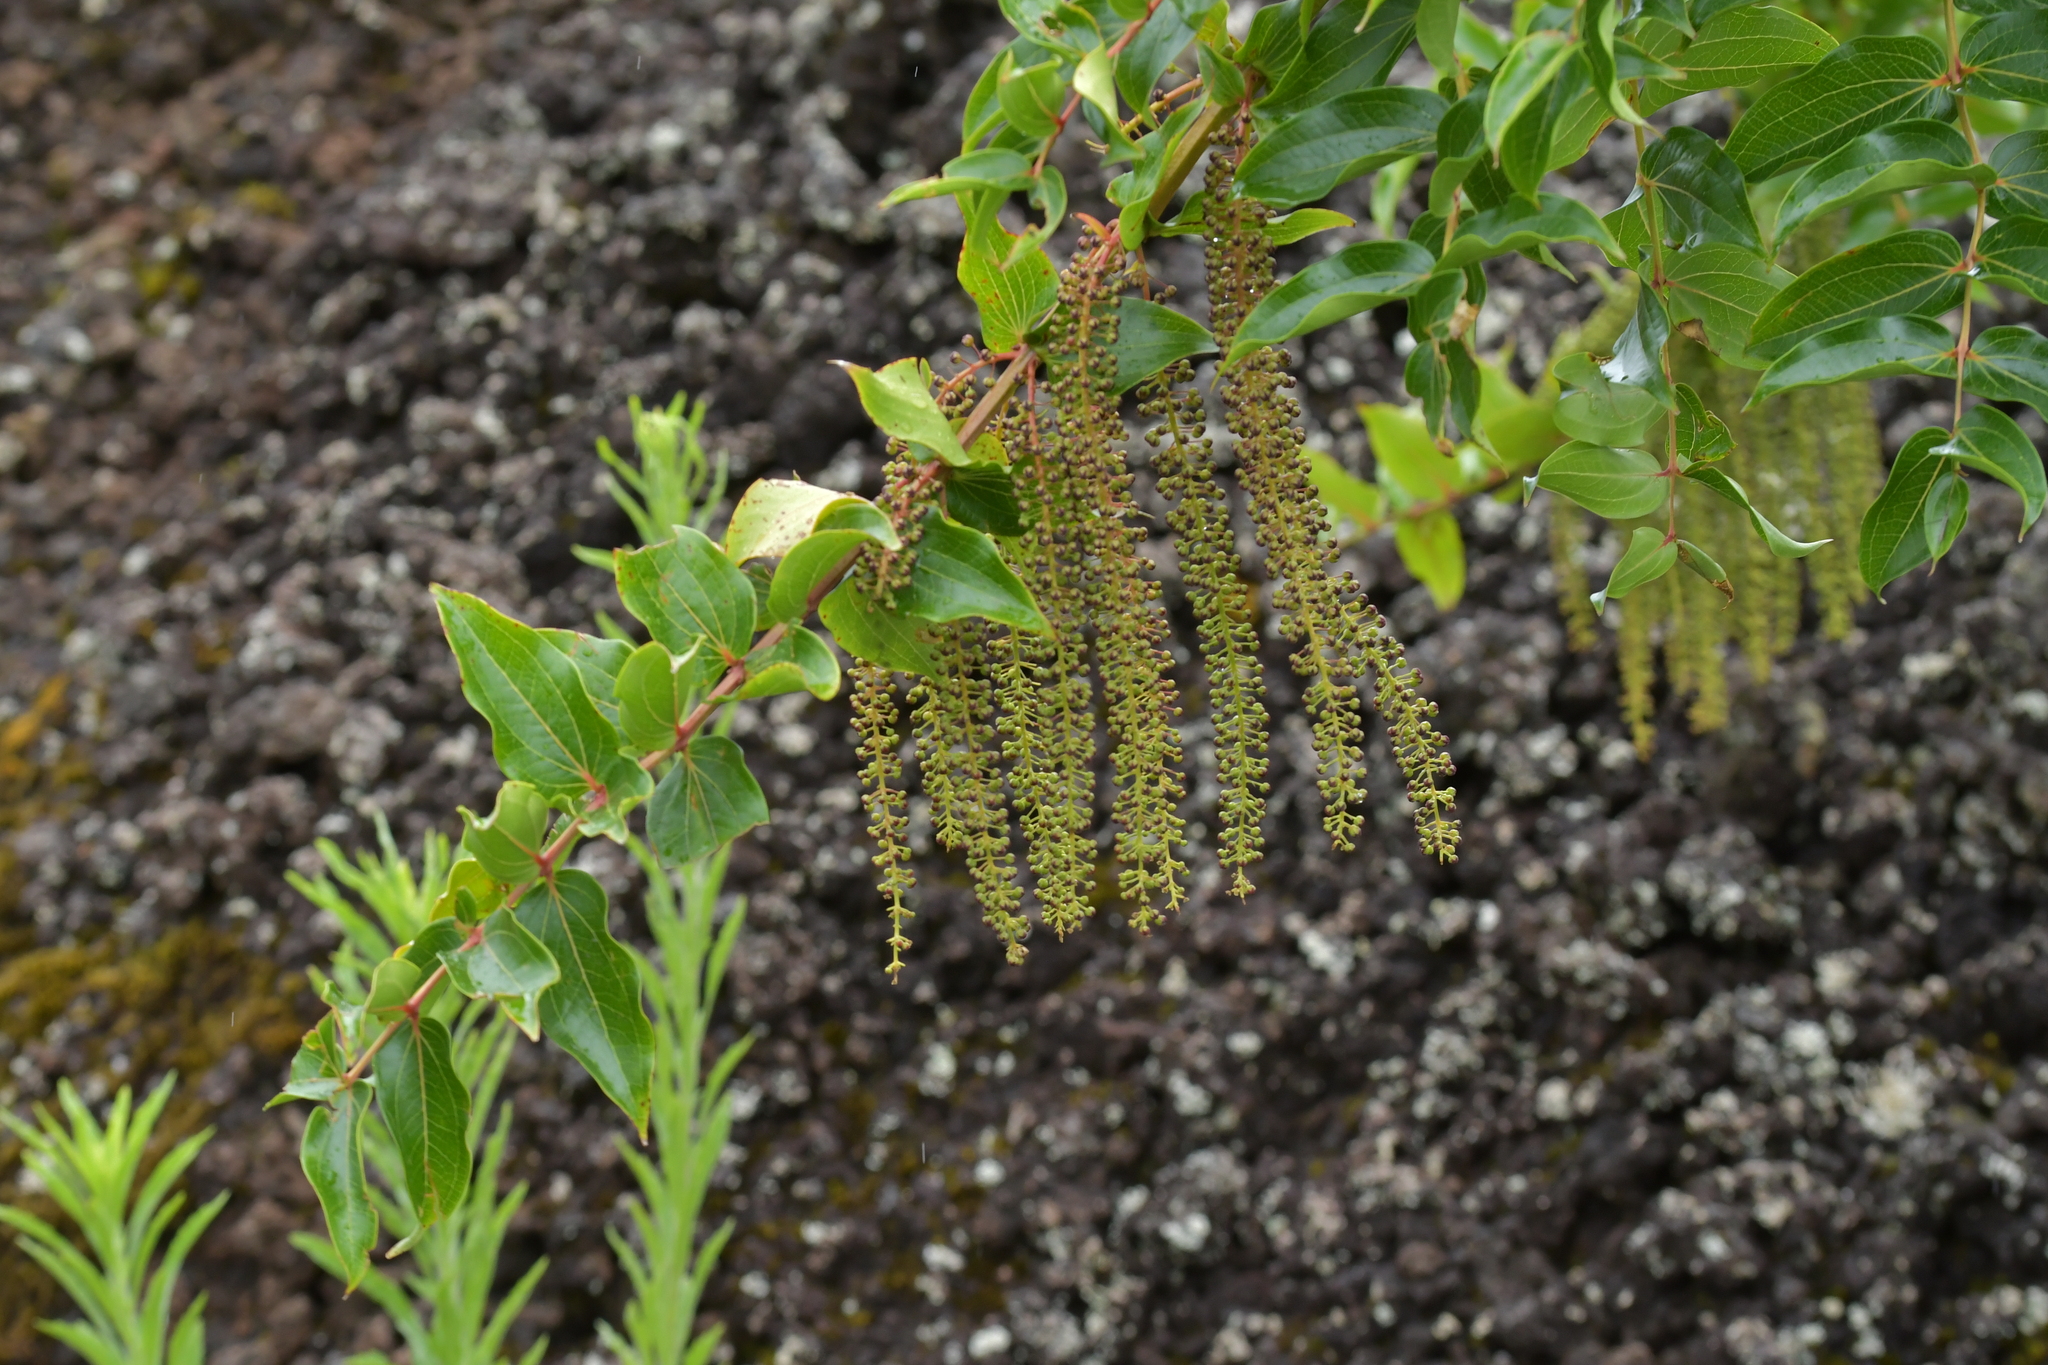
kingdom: Plantae
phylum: Tracheophyta
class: Magnoliopsida
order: Cucurbitales
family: Coriariaceae
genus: Coriaria
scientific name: Coriaria arborea
